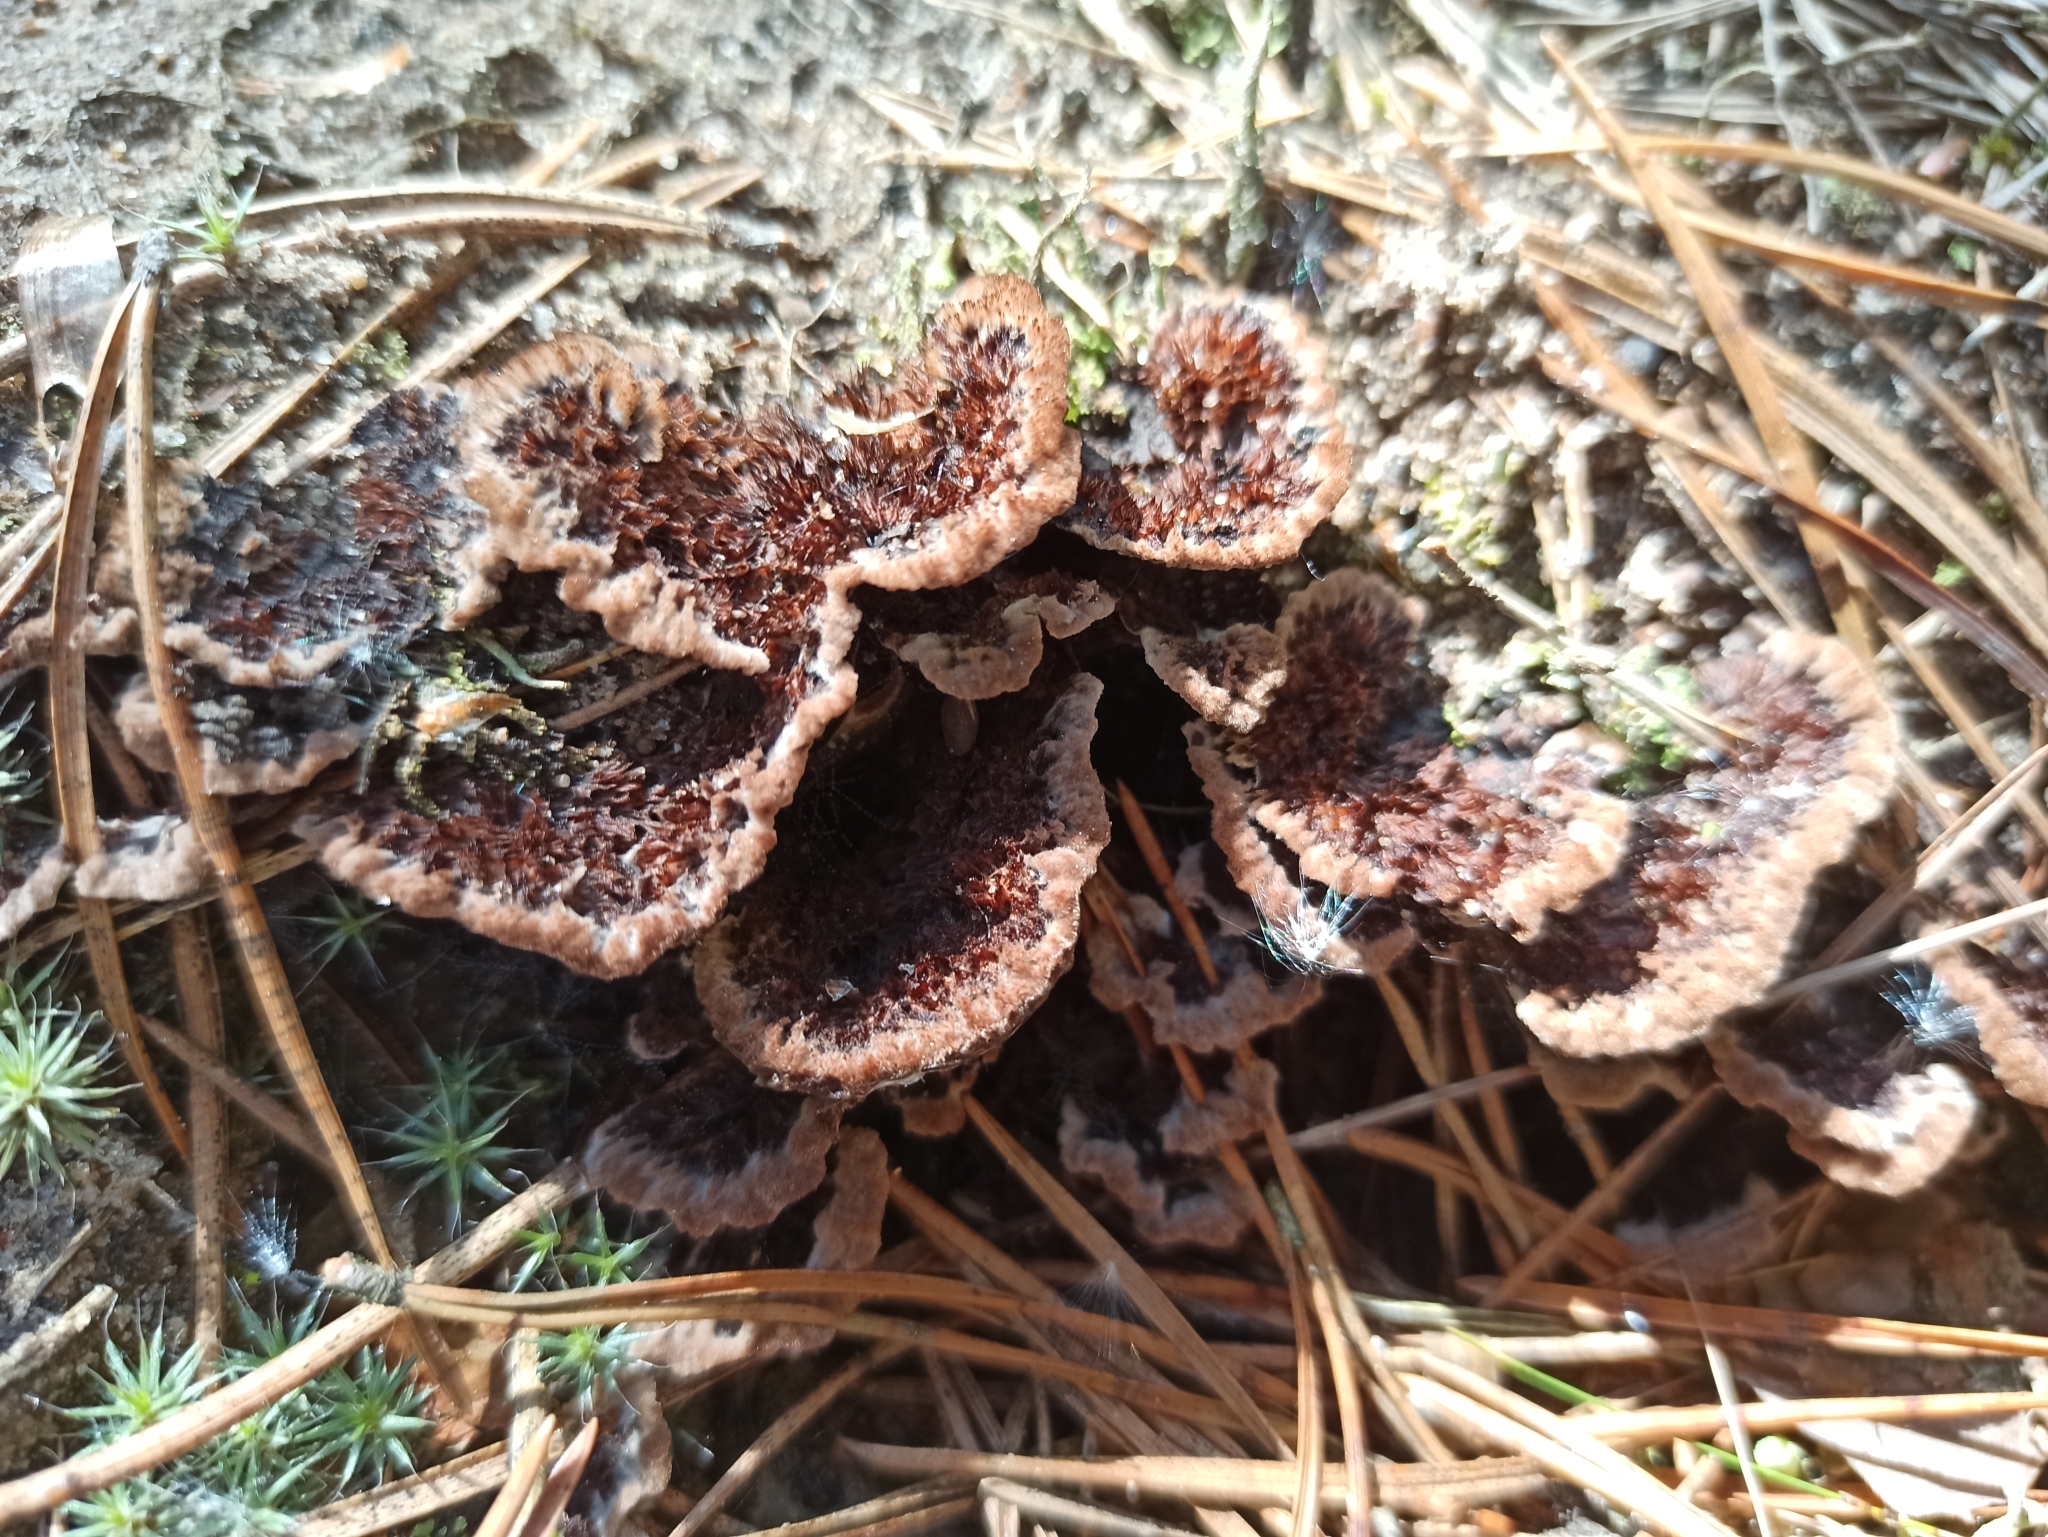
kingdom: Fungi
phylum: Basidiomycota
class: Agaricomycetes
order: Thelephorales
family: Thelephoraceae
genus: Thelephora
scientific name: Thelephora terrestris
